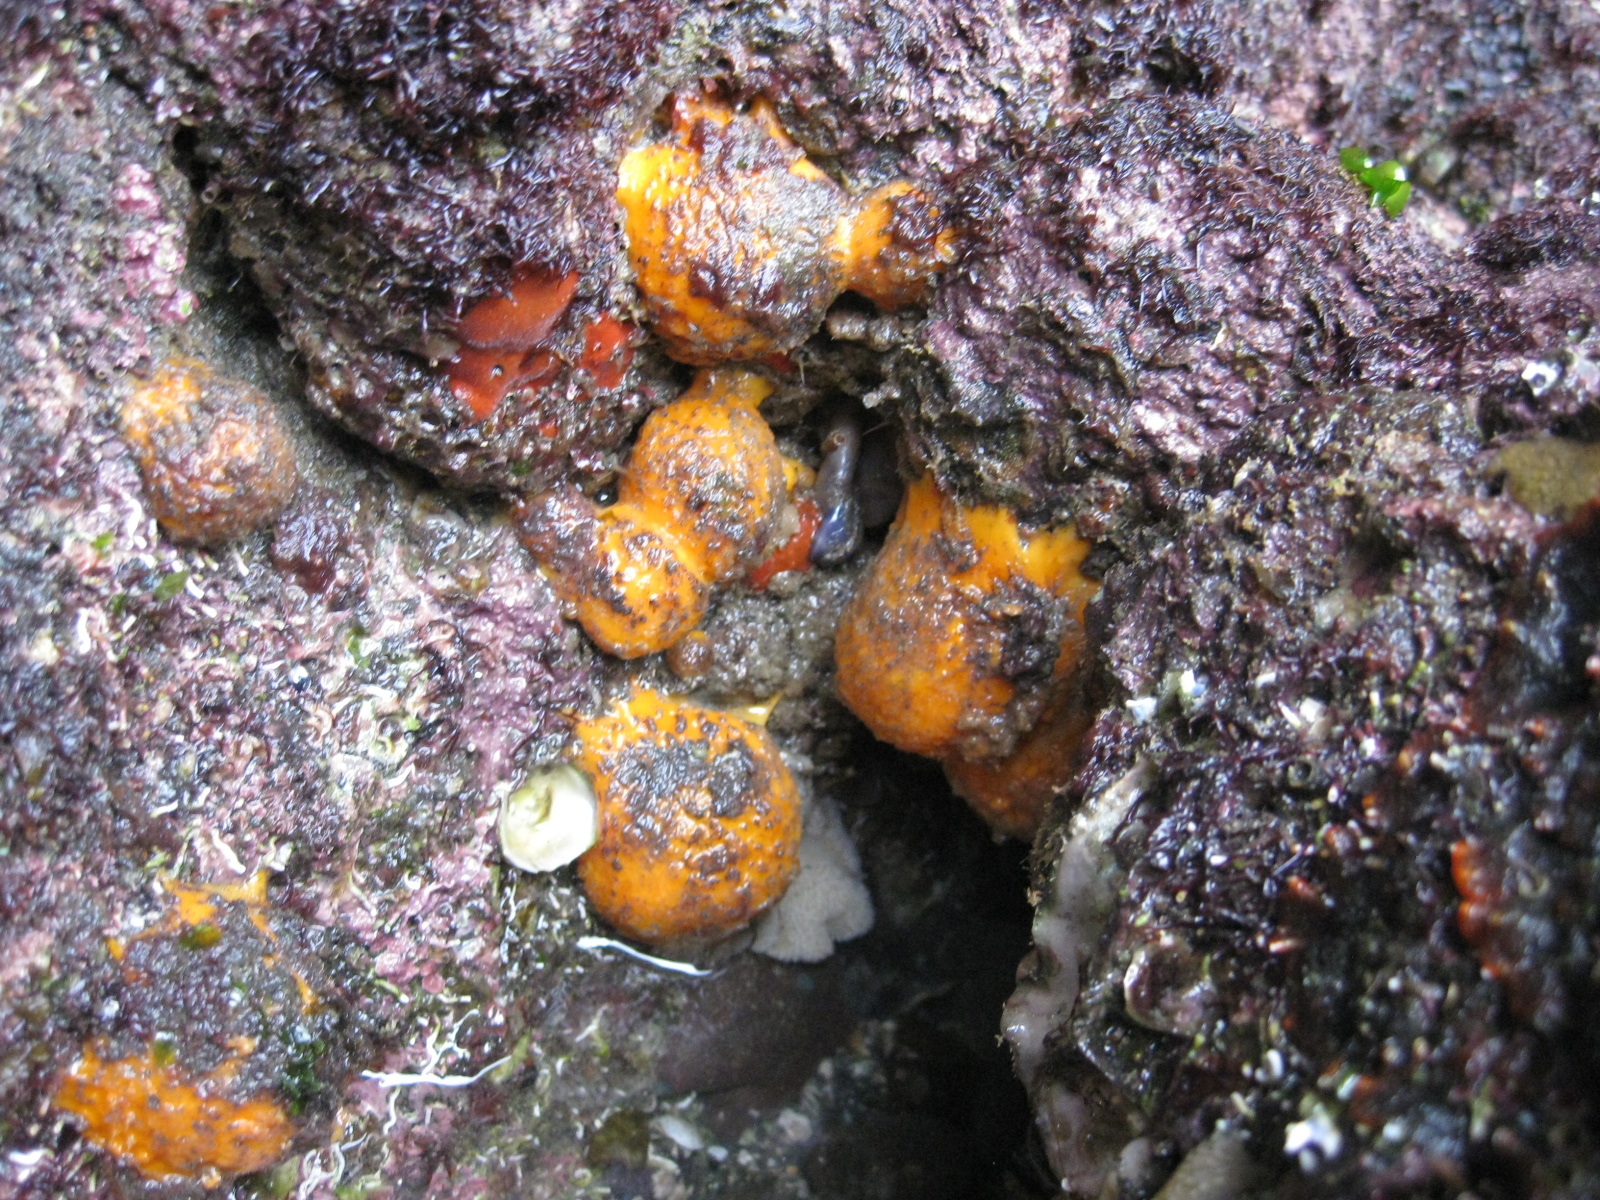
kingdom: Animalia
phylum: Porifera
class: Demospongiae
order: Tethyida
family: Tethyidae
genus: Tethya
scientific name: Tethya burtoni
